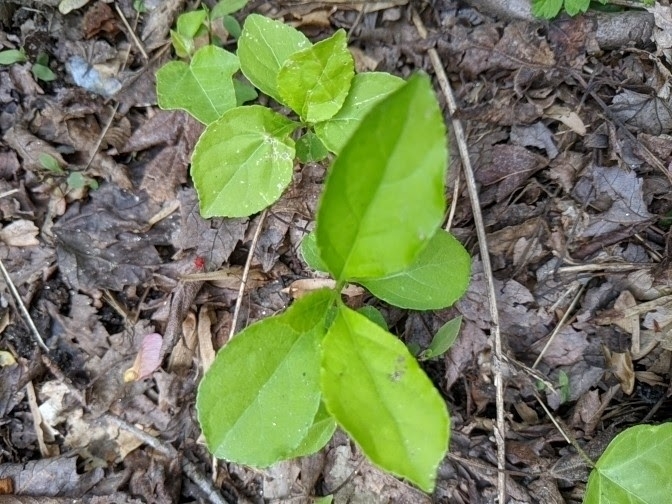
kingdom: Plantae
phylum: Tracheophyta
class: Magnoliopsida
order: Celastrales
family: Celastraceae
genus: Celastrus
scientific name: Celastrus orbiculatus
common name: Oriental bittersweet
